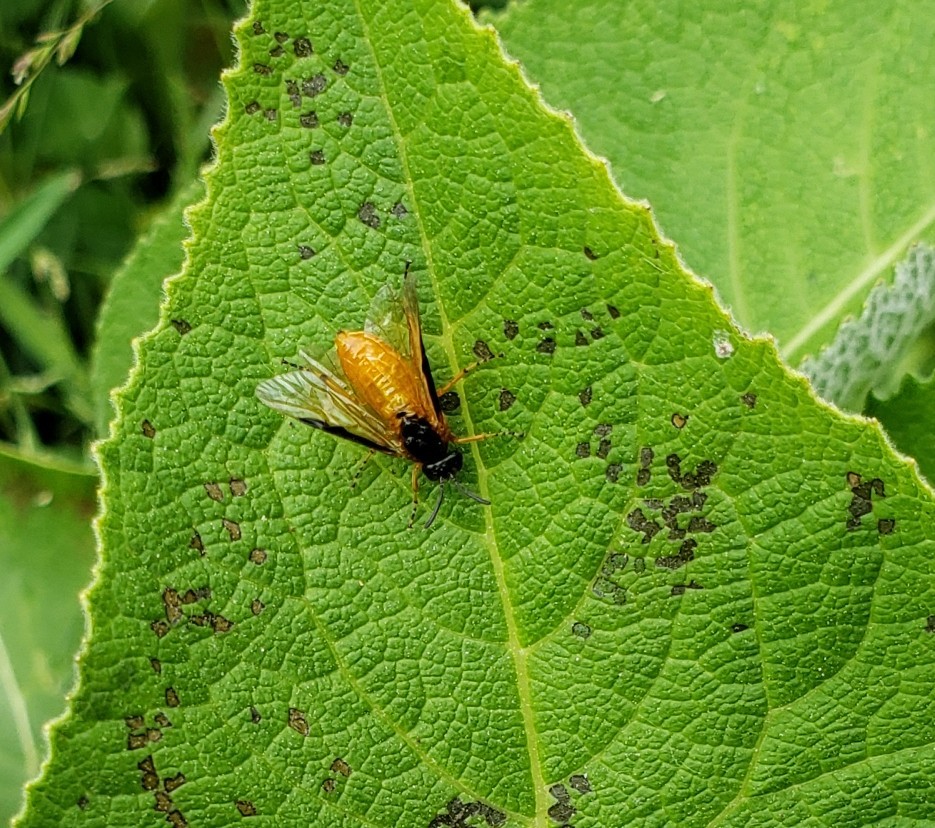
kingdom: Animalia
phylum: Arthropoda
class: Insecta
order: Hymenoptera
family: Argidae
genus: Arge
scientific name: Arge ochropus
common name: Argid sawfly
